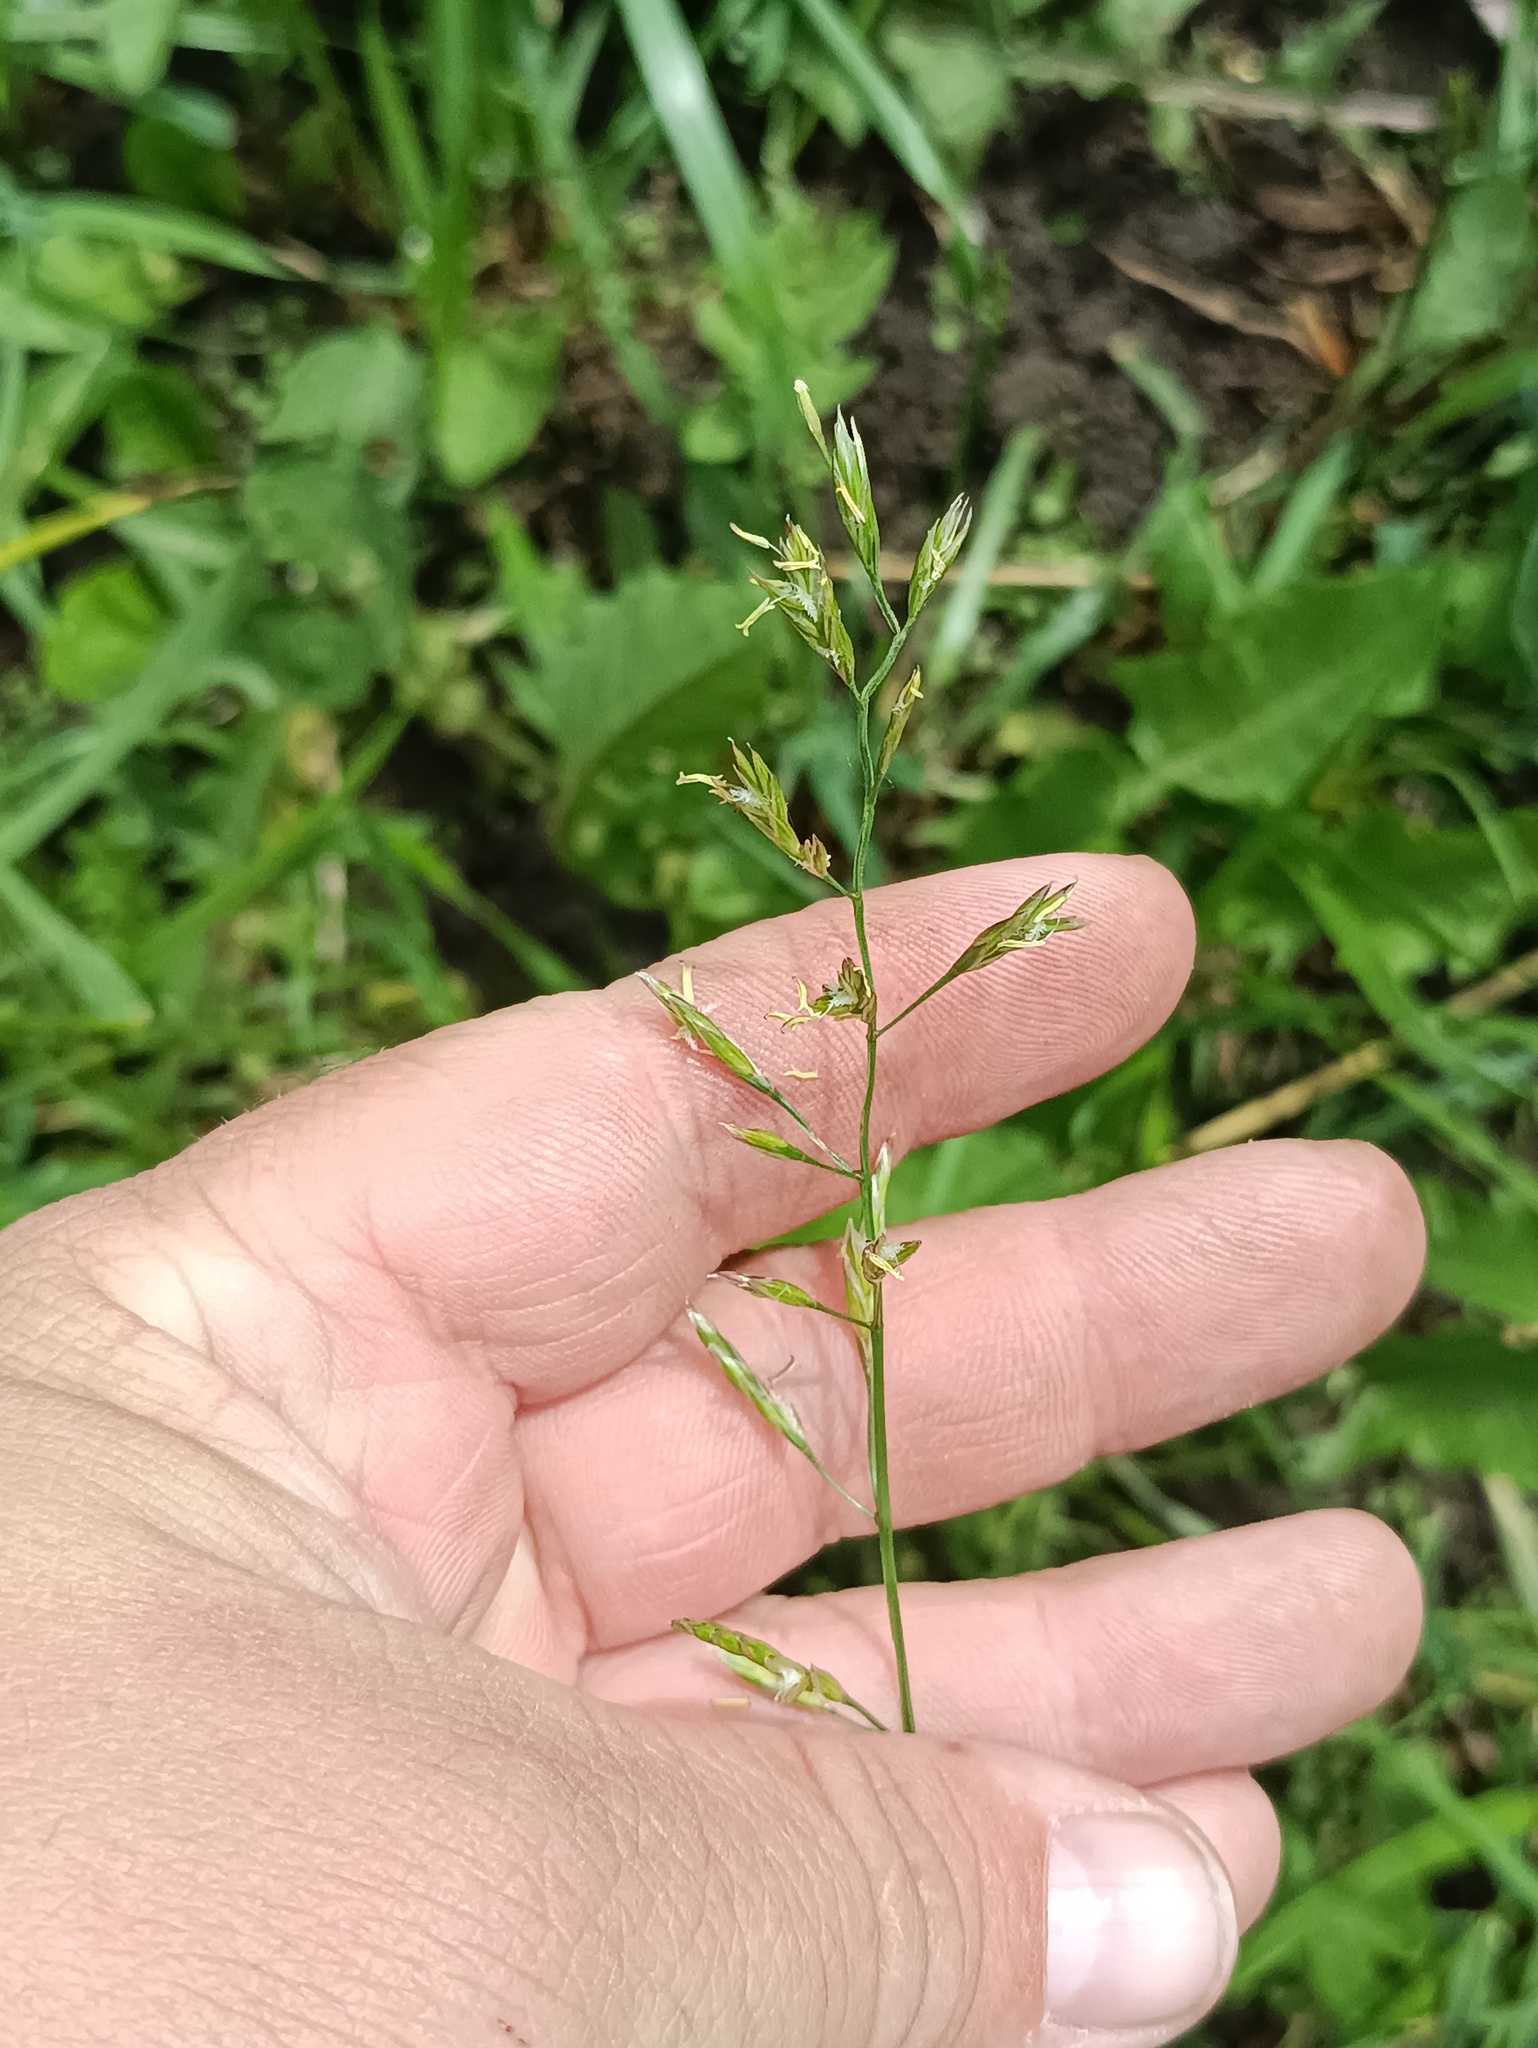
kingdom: Plantae
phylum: Tracheophyta
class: Liliopsida
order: Poales
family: Poaceae
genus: Lolium
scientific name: Lolium pratense
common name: Dover grass
